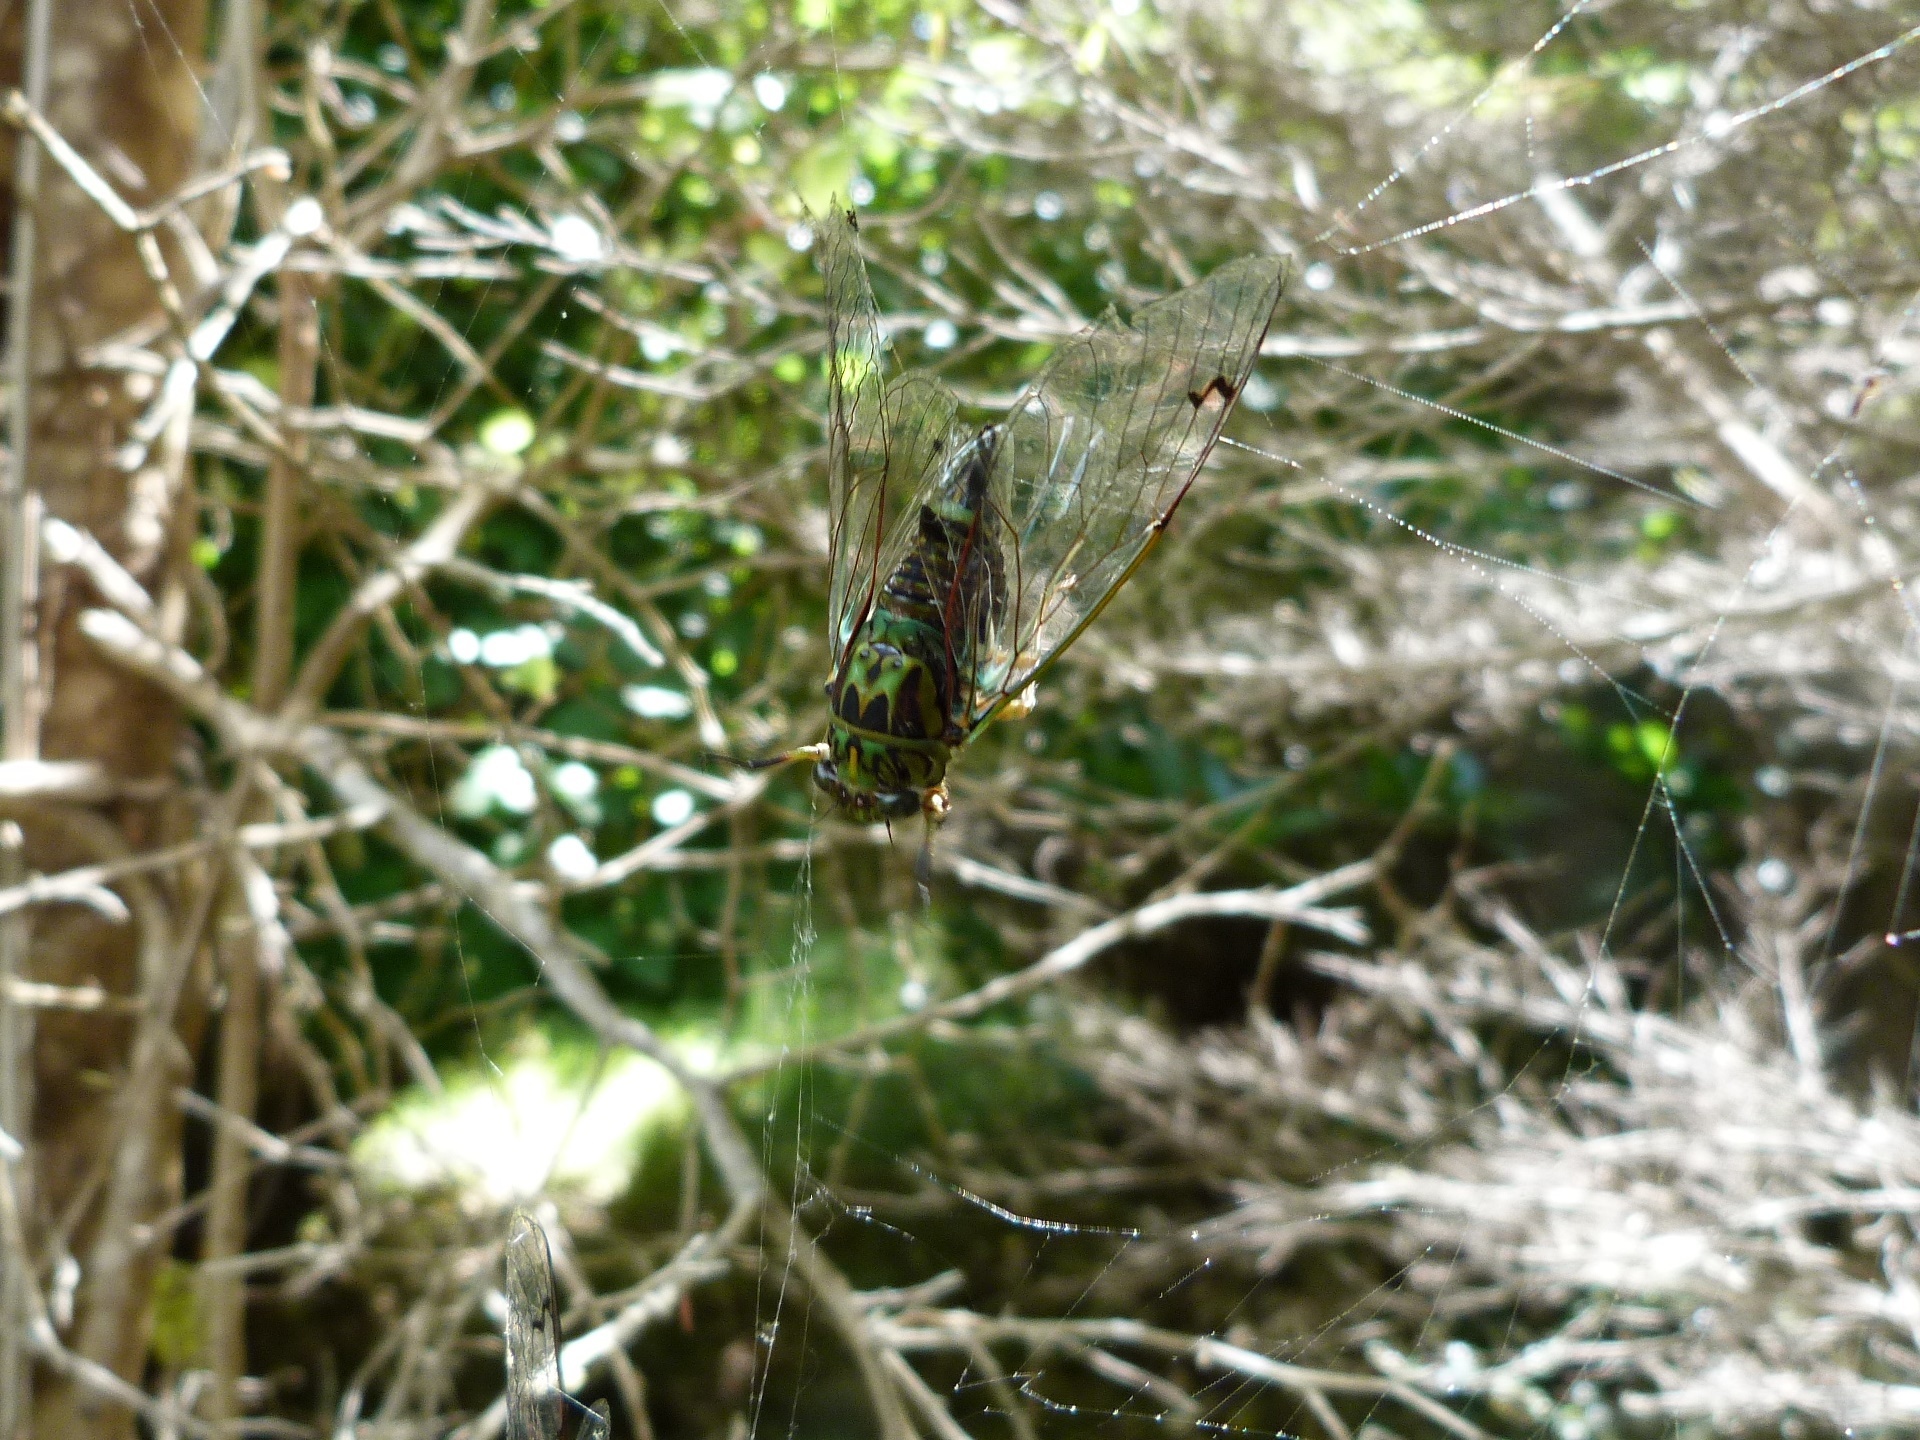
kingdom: Animalia
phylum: Arthropoda
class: Insecta
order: Hemiptera
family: Cicadidae
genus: Amphipsalta
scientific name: Amphipsalta zelandica
